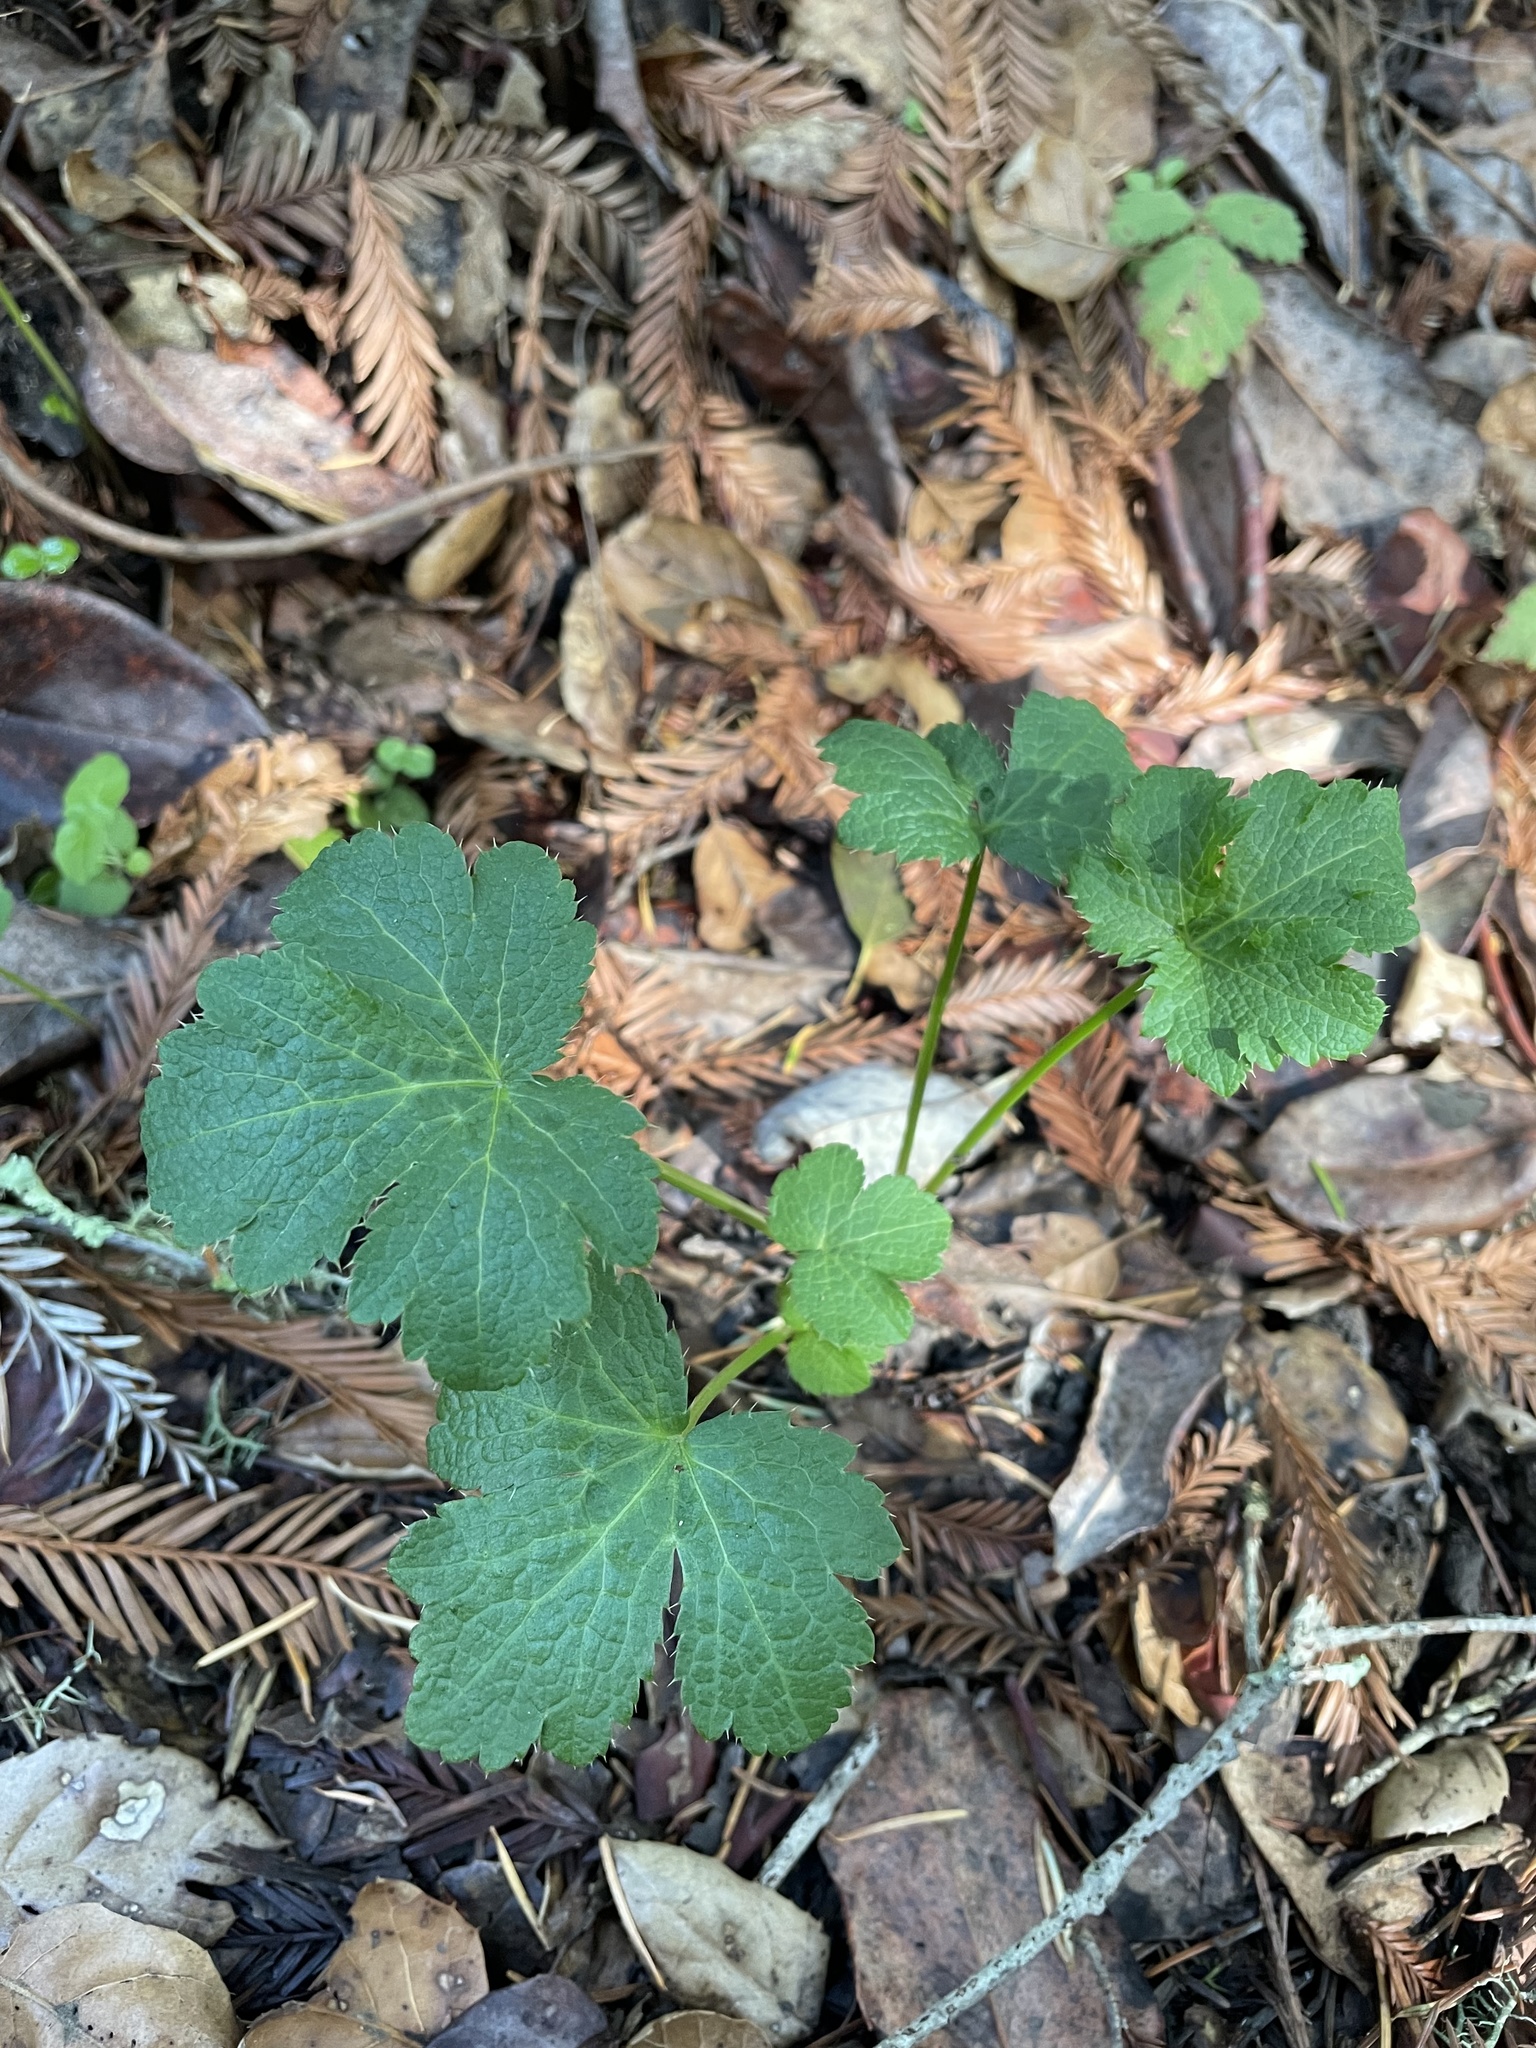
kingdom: Plantae
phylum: Tracheophyta
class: Magnoliopsida
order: Apiales
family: Apiaceae
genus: Sanicula
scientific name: Sanicula crassicaulis
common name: Western snakeroot
